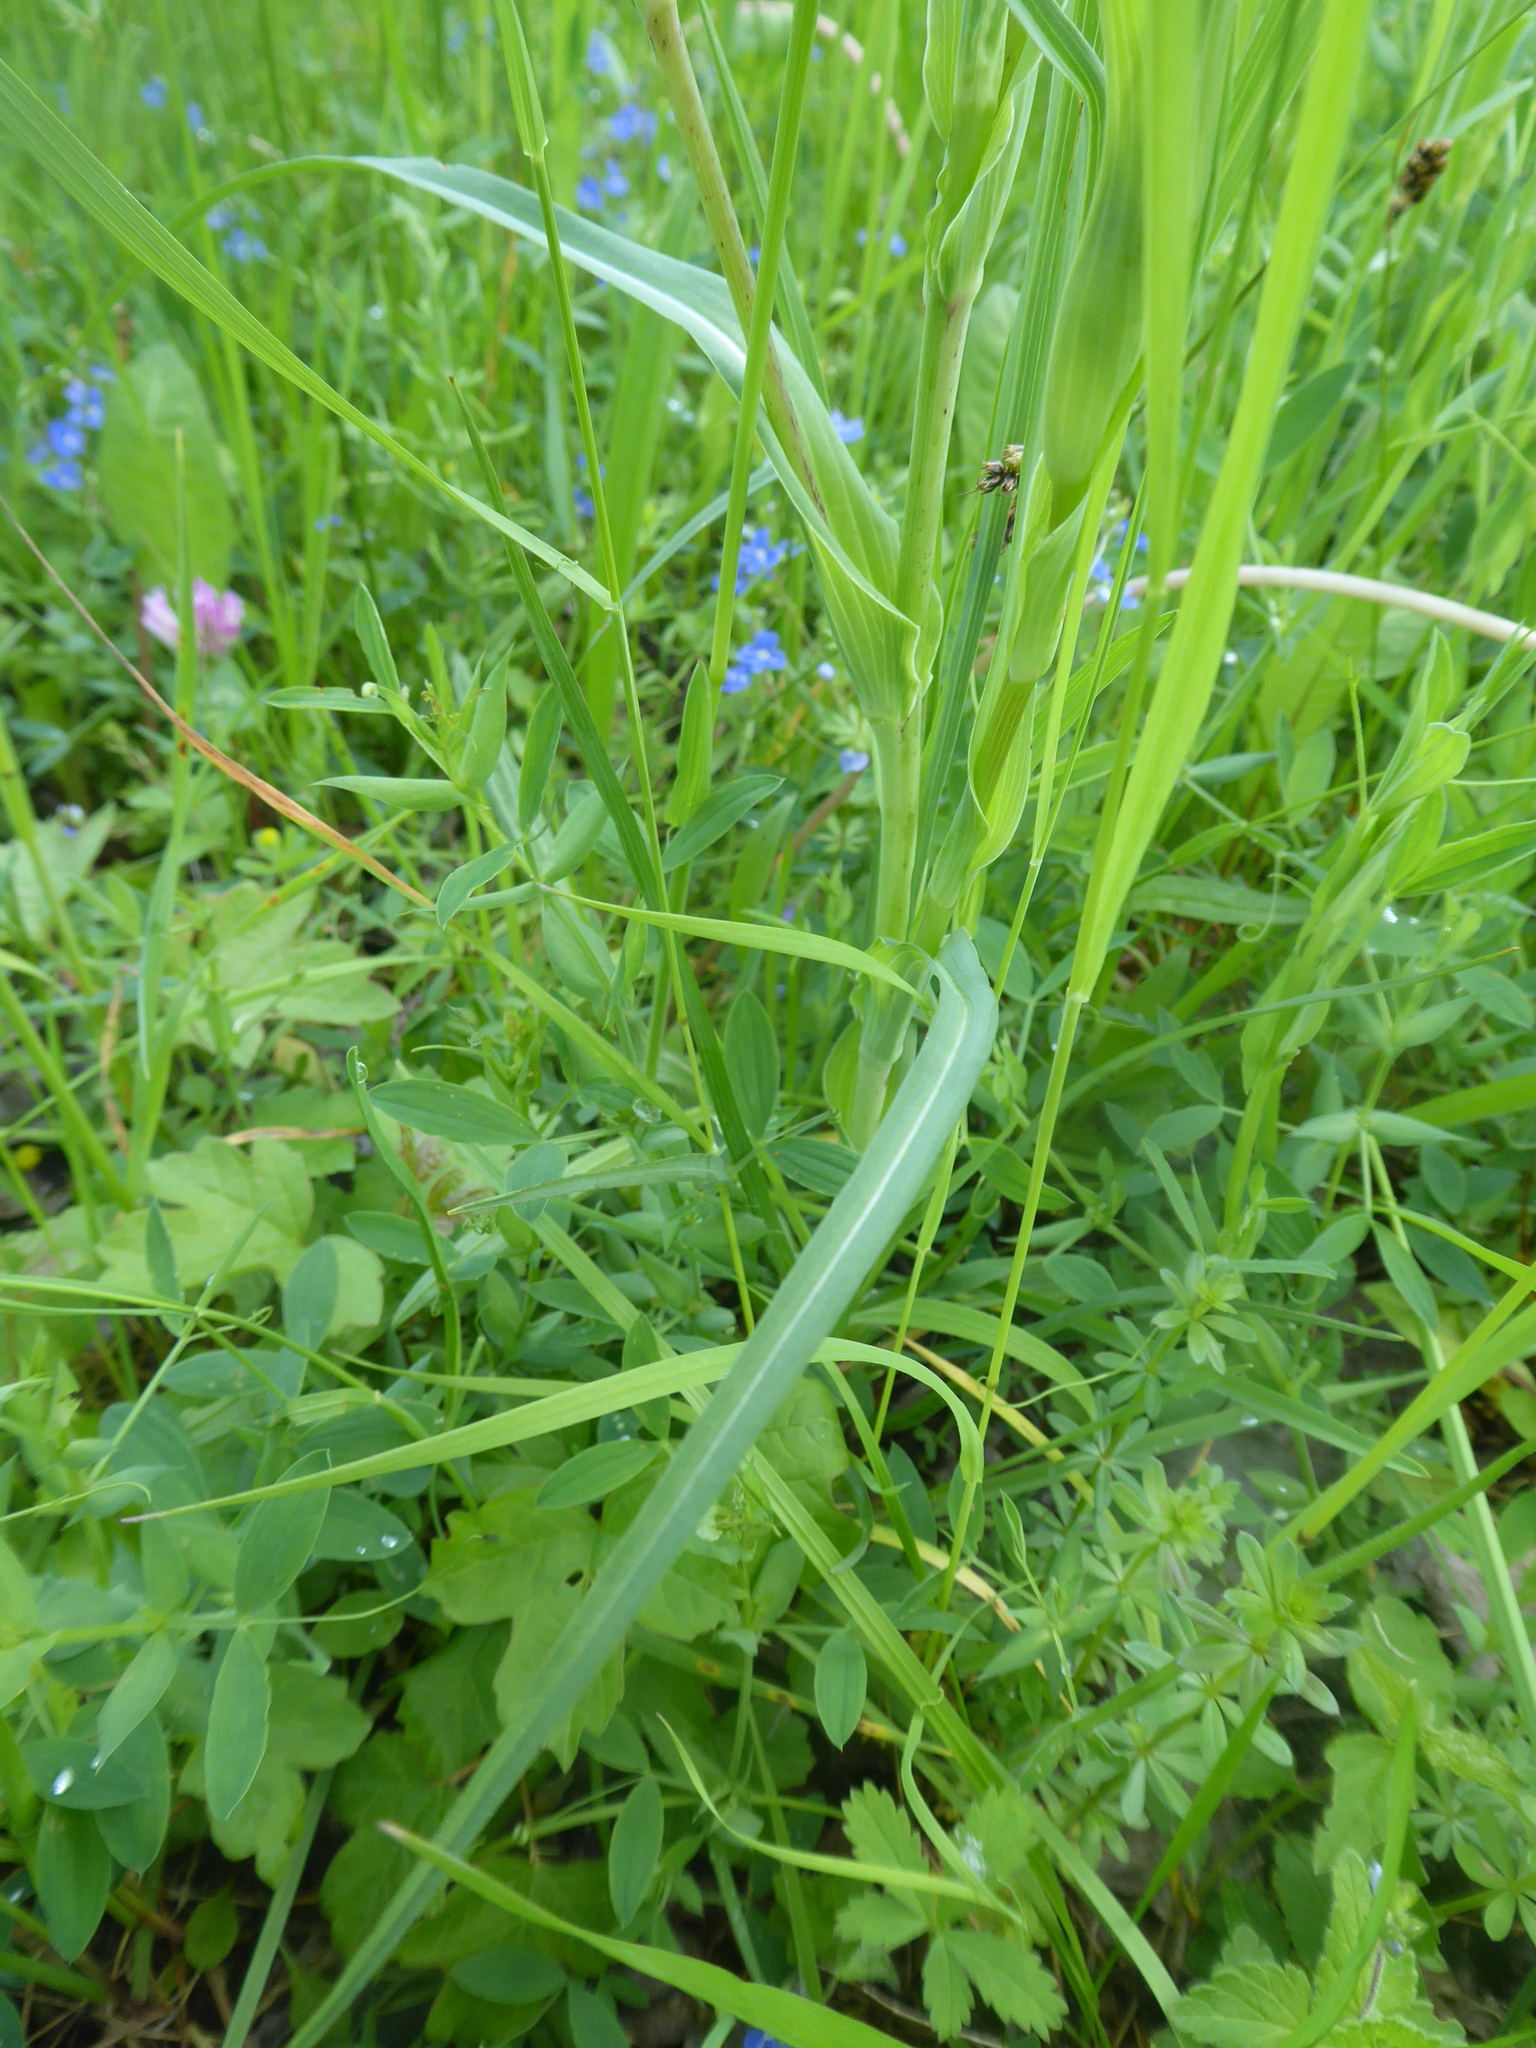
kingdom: Plantae
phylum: Tracheophyta
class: Magnoliopsida
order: Asterales
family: Asteraceae
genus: Tragopogon
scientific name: Tragopogon orientalis
